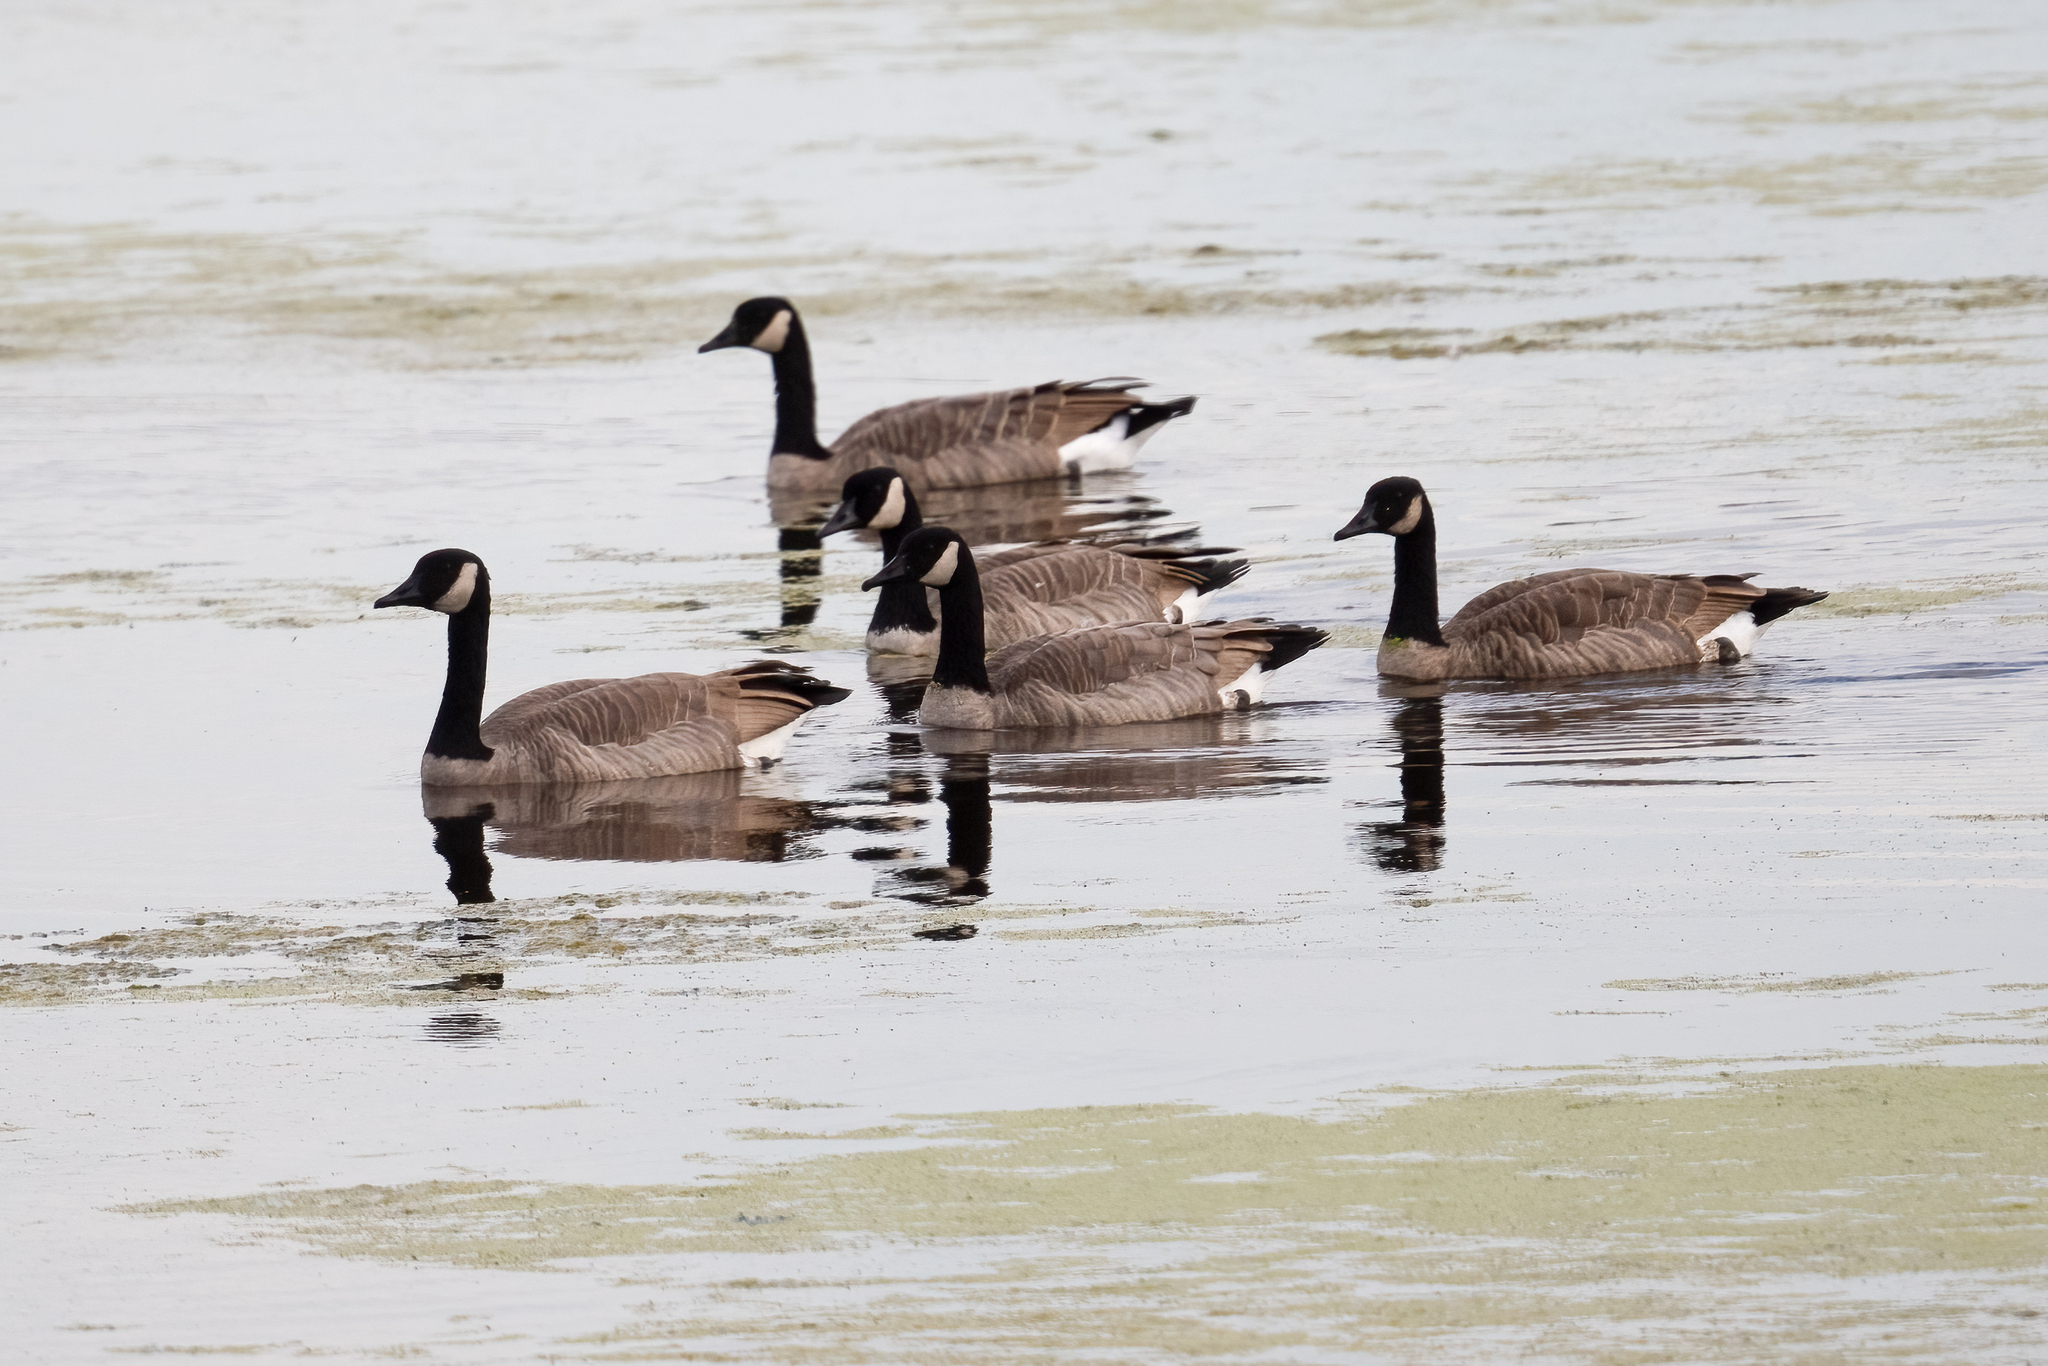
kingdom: Animalia
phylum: Chordata
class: Aves
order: Anseriformes
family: Anatidae
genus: Branta
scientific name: Branta canadensis
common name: Canada goose
